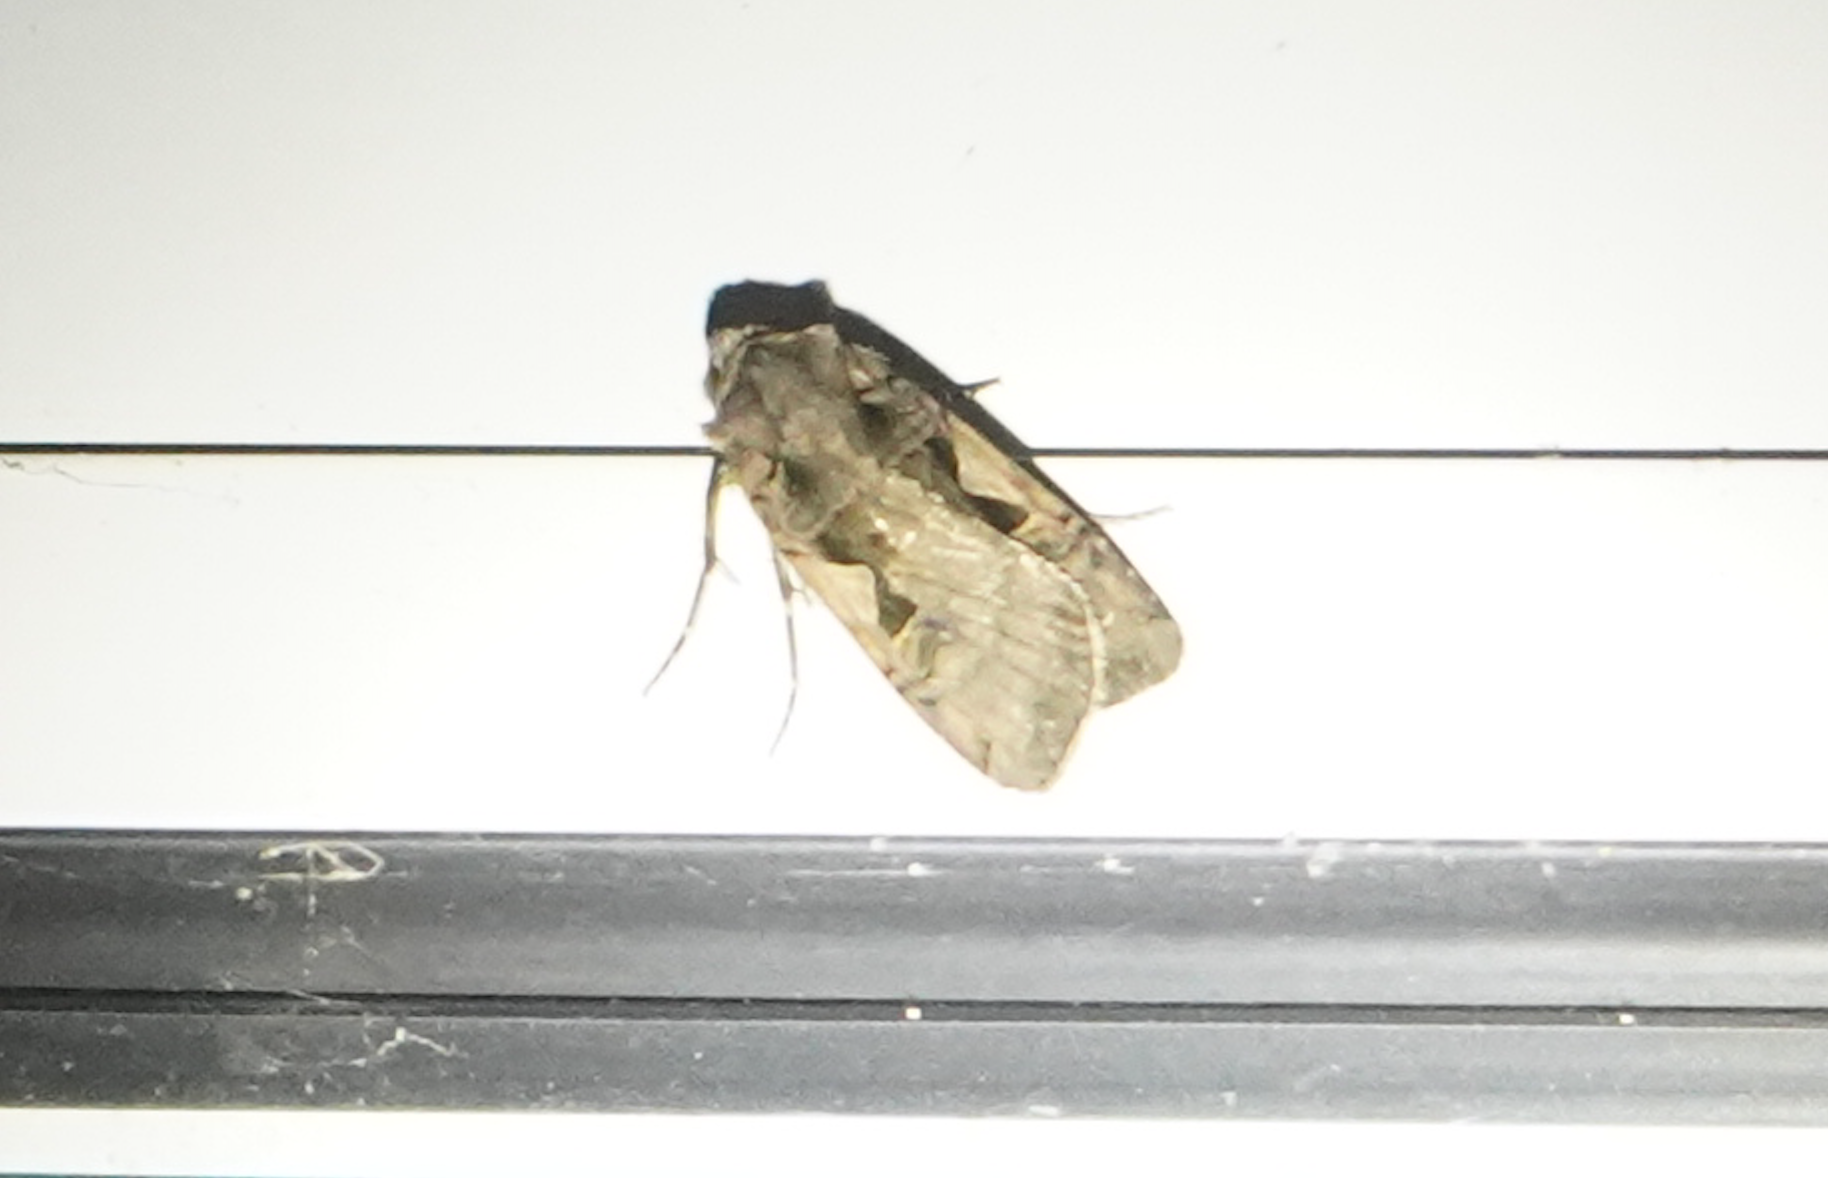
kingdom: Animalia
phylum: Arthropoda
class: Insecta
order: Lepidoptera
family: Noctuidae
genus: Xestia
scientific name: Xestia
